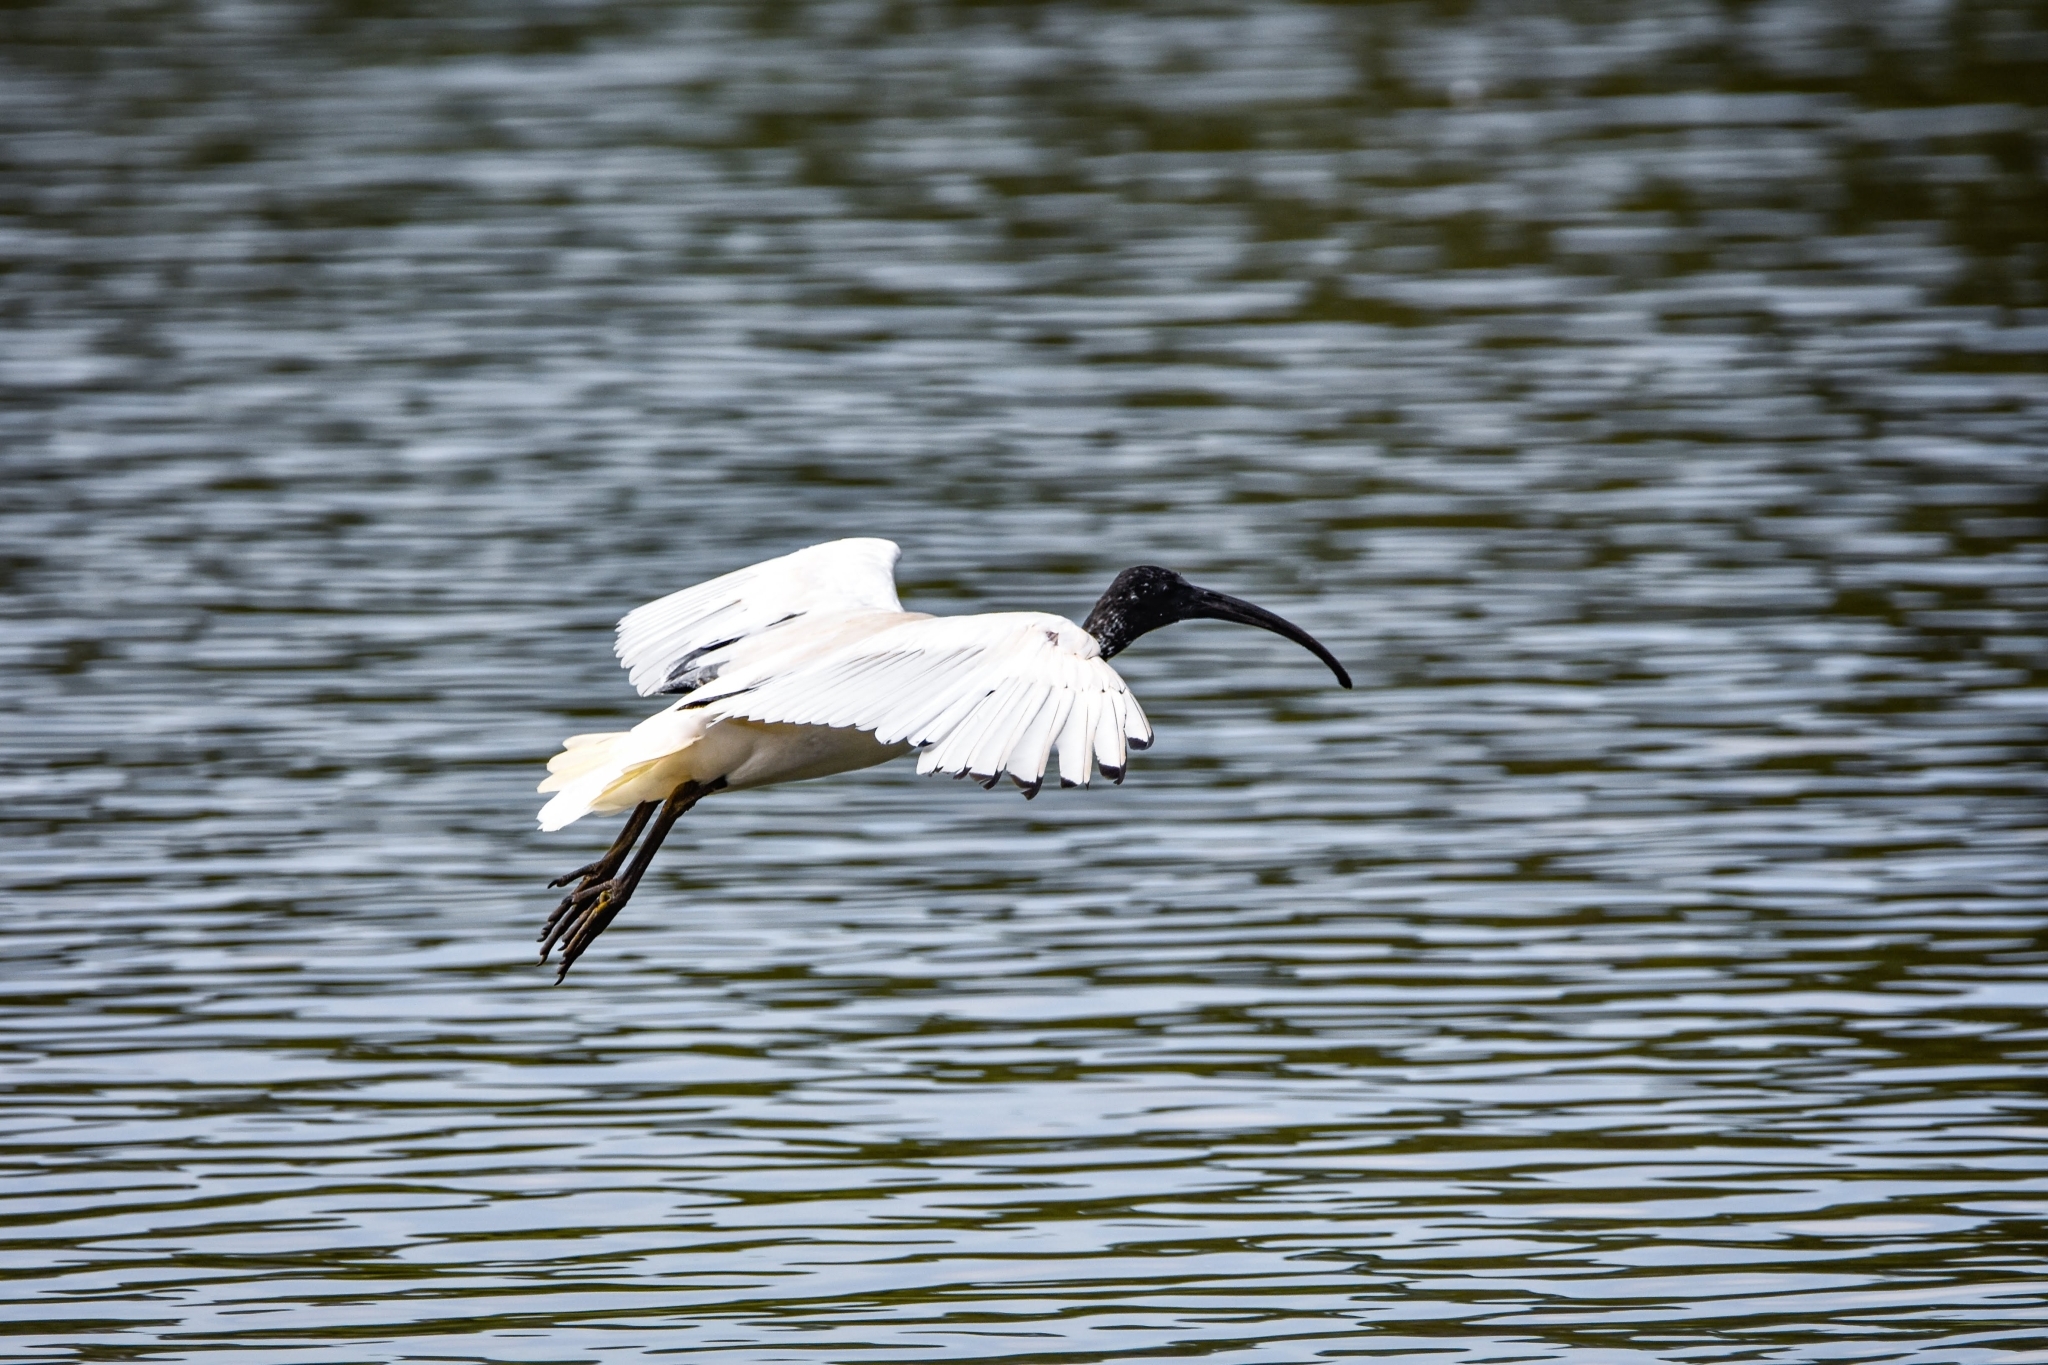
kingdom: Animalia
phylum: Chordata
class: Aves
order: Pelecaniformes
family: Threskiornithidae
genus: Threskiornis
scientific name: Threskiornis molucca
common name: Australian white ibis
